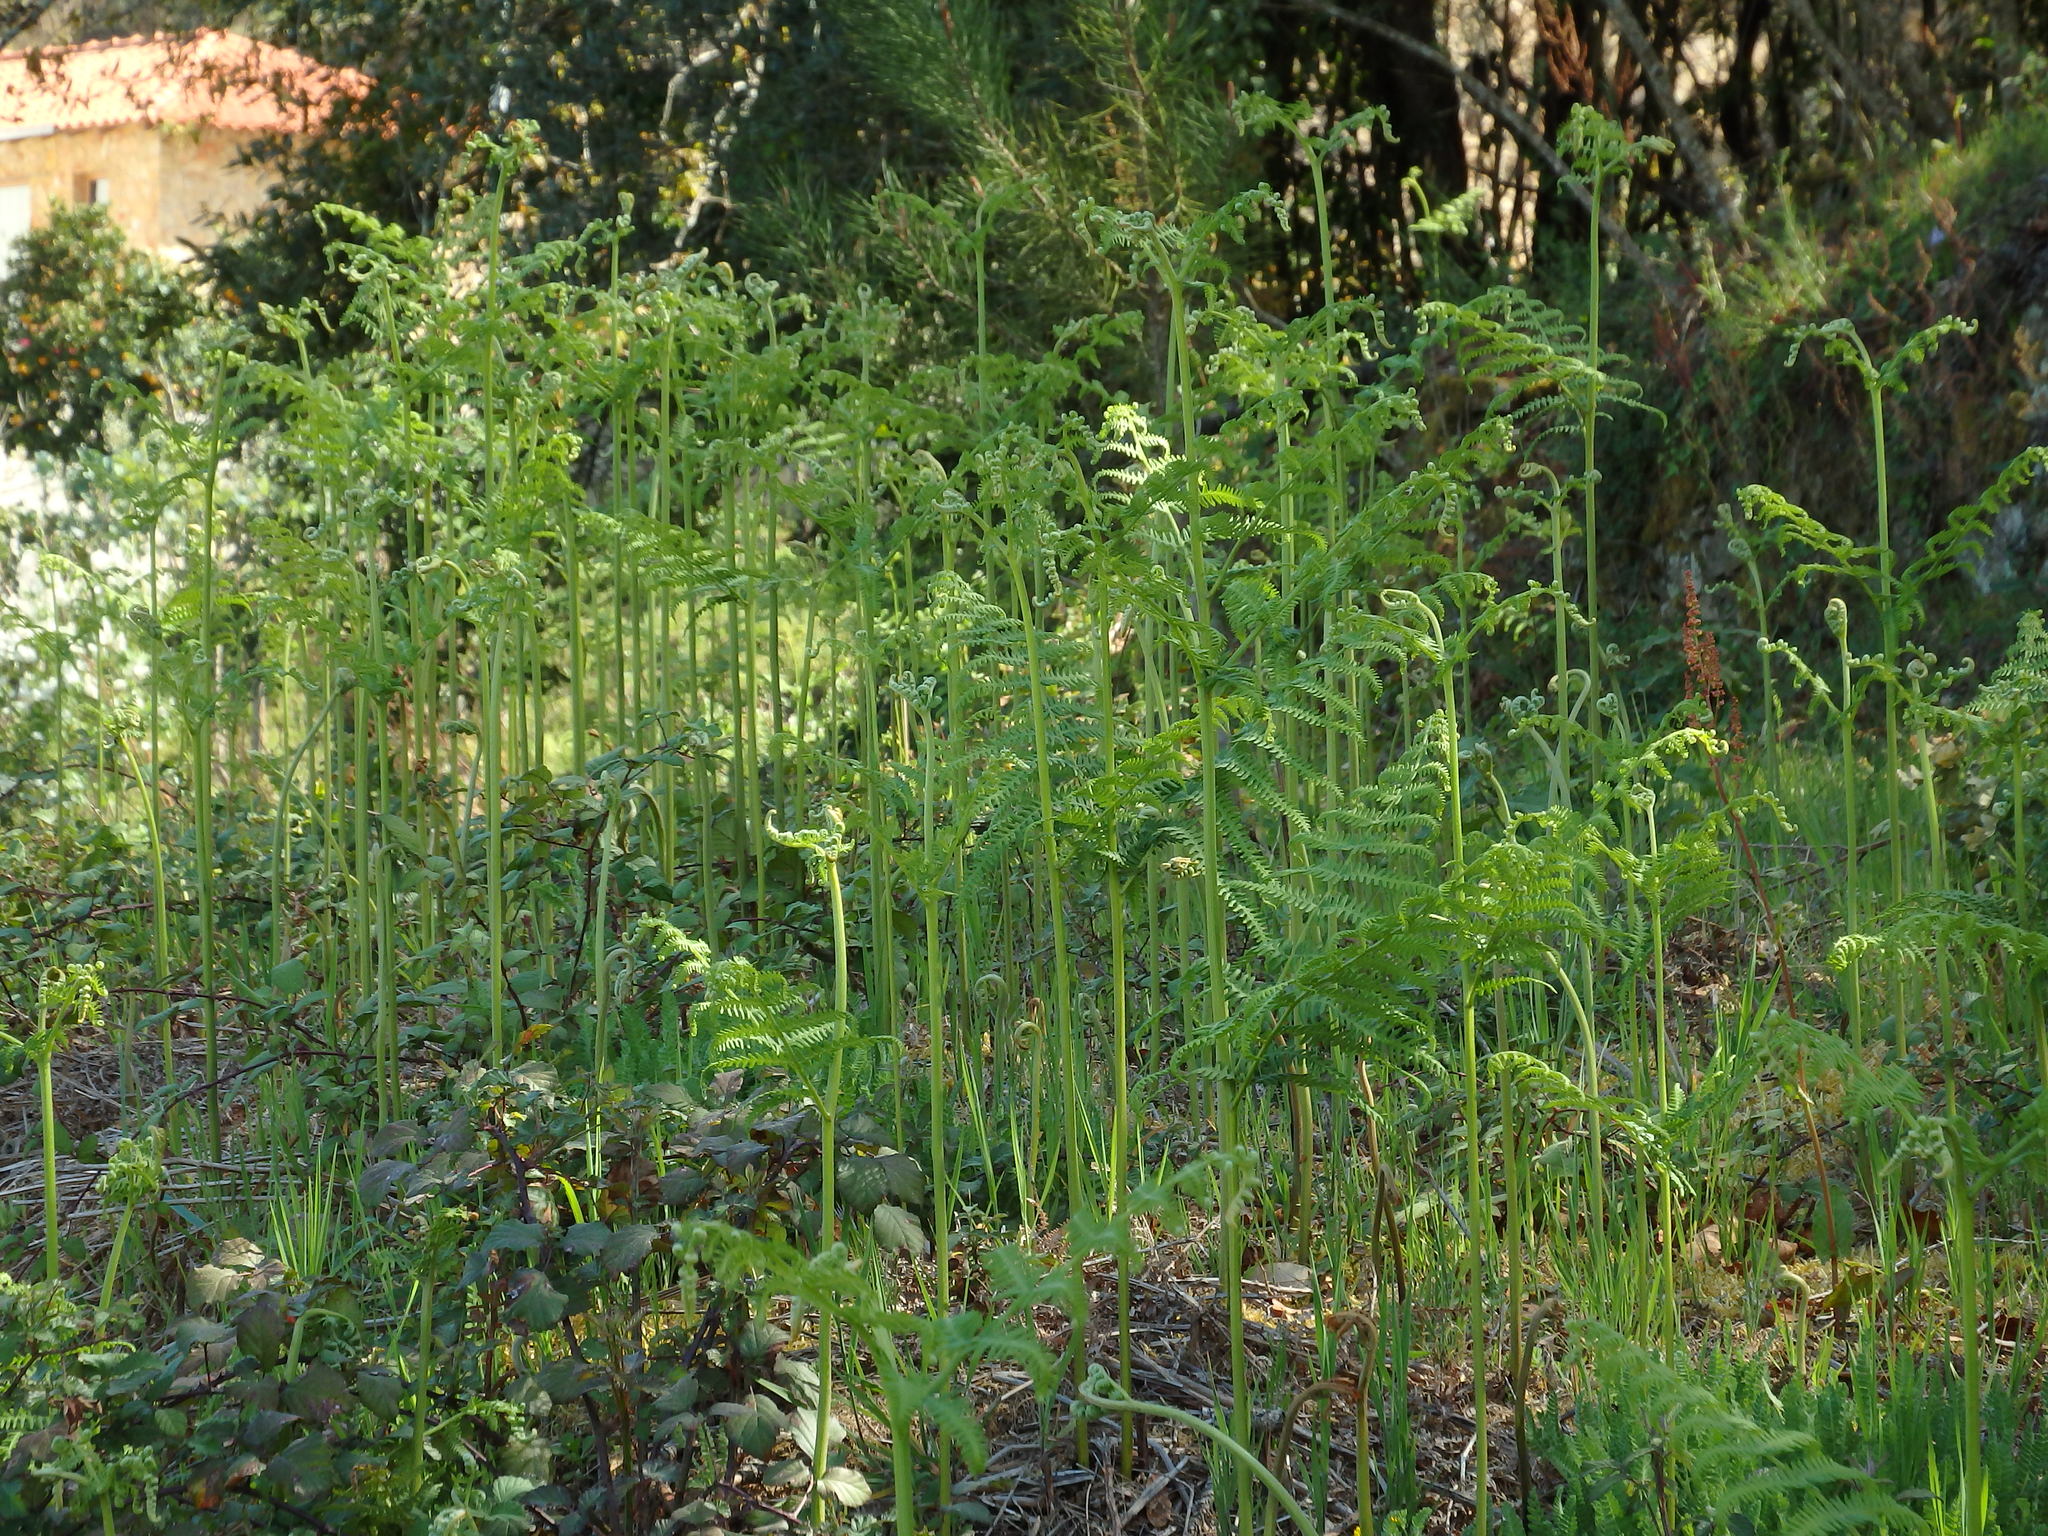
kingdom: Plantae
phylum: Tracheophyta
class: Polypodiopsida
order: Polypodiales
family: Dennstaedtiaceae
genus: Pteridium
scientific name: Pteridium aquilinum
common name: Bracken
